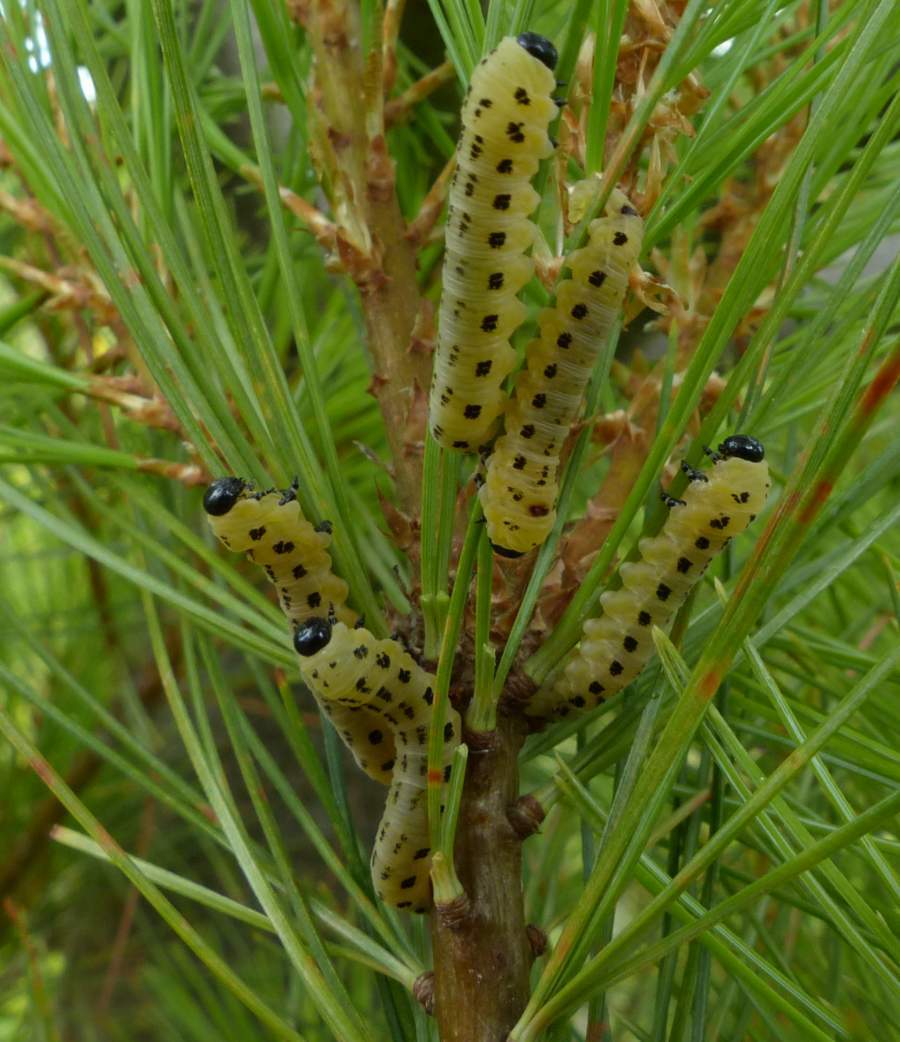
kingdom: Animalia
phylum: Arthropoda
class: Insecta
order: Hymenoptera
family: Diprionidae
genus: Neodiprion
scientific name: Neodiprion pinetum
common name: White pine sawfly
